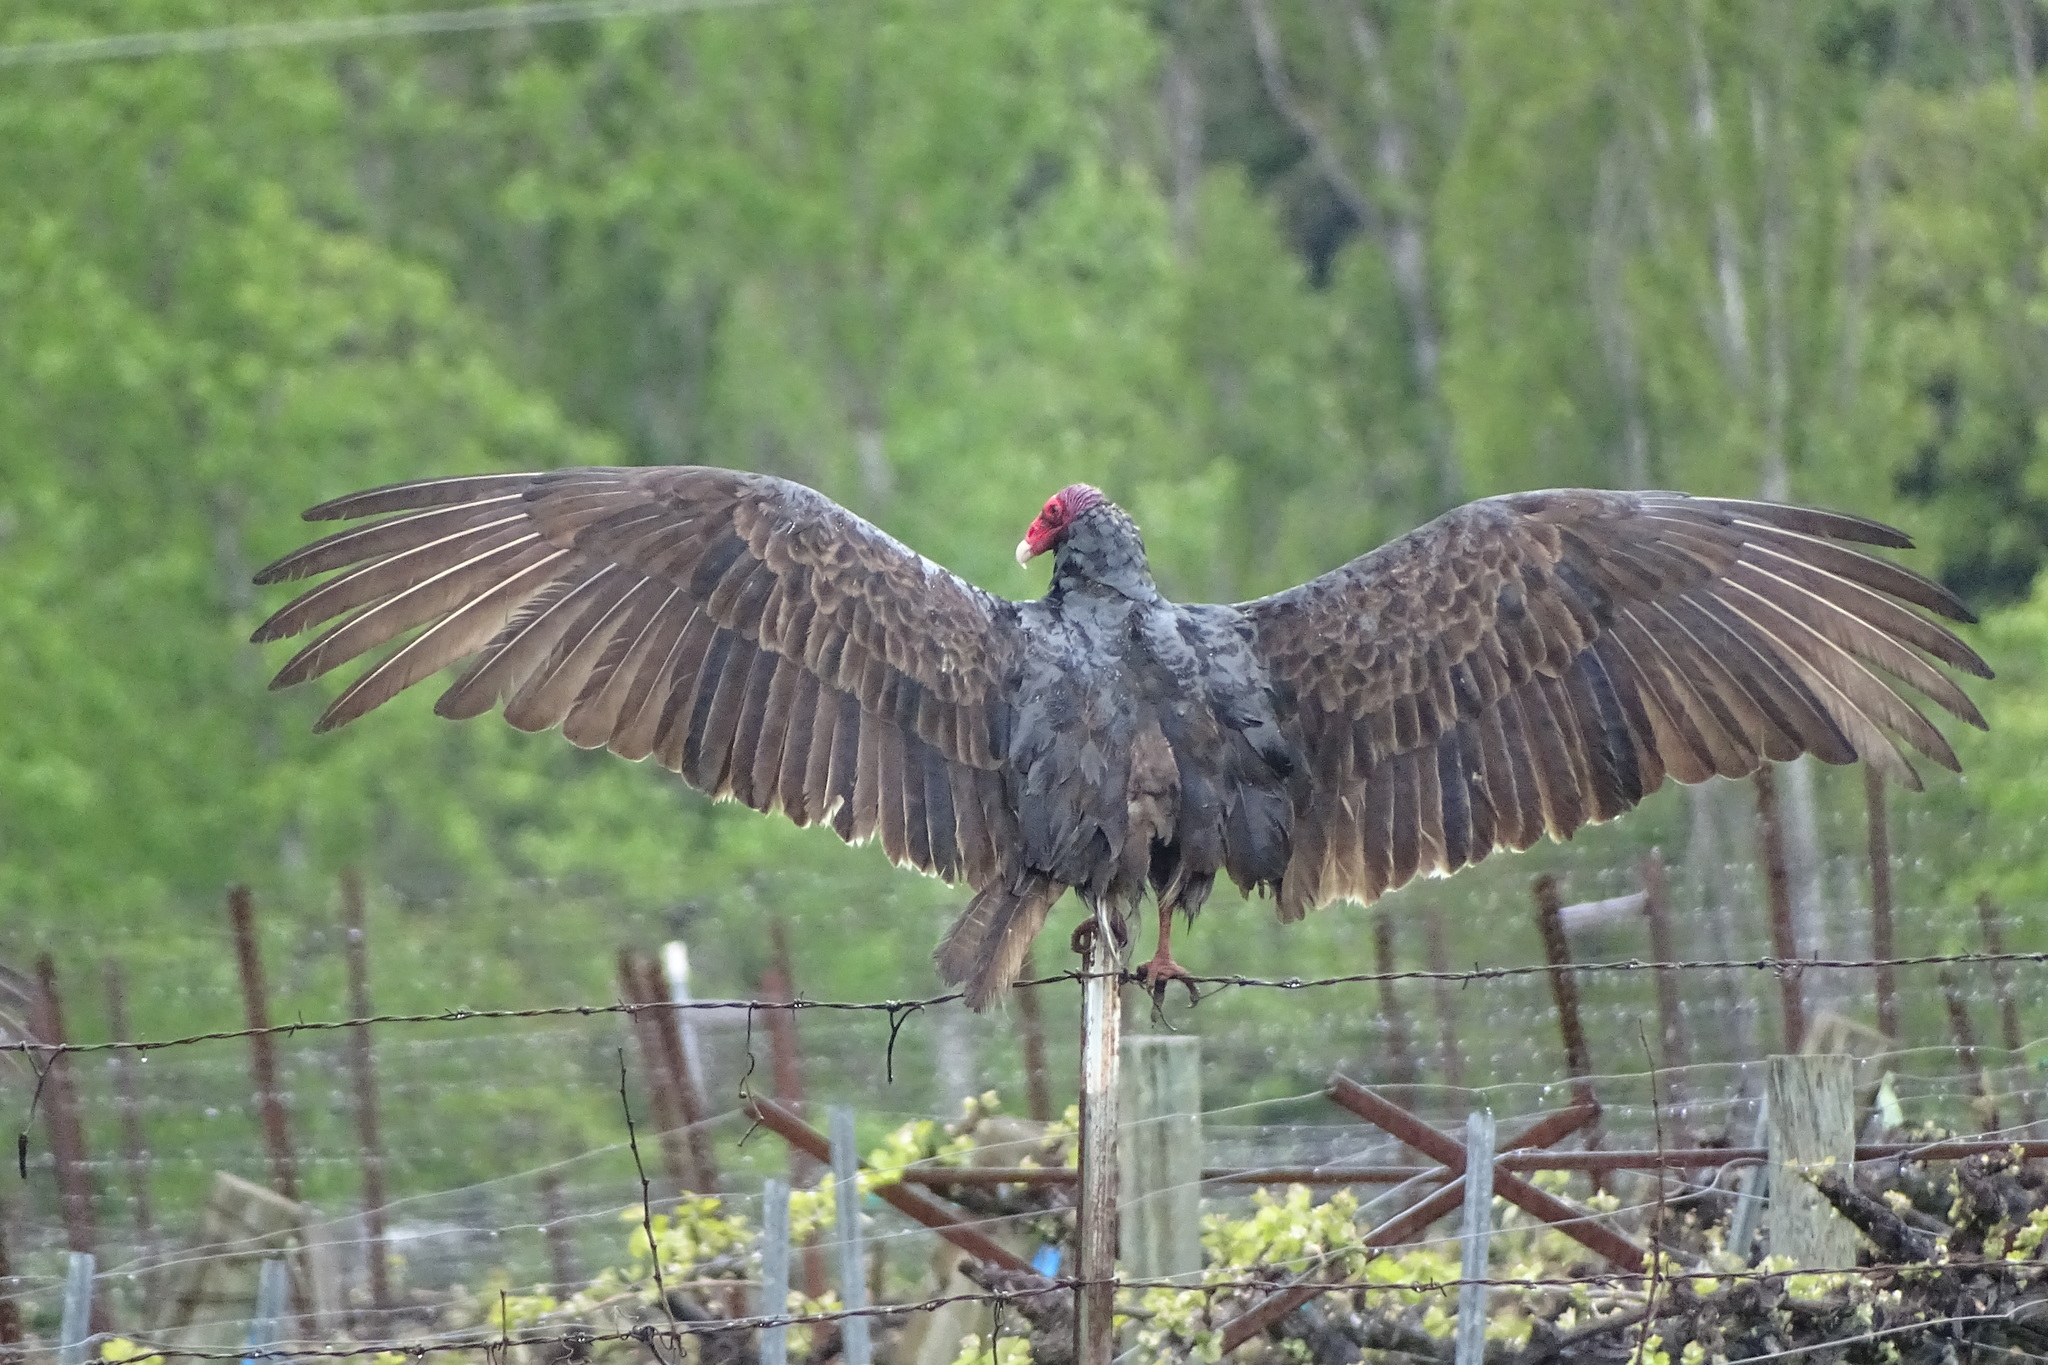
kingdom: Animalia
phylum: Chordata
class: Aves
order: Accipitriformes
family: Cathartidae
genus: Cathartes
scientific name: Cathartes aura
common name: Turkey vulture
